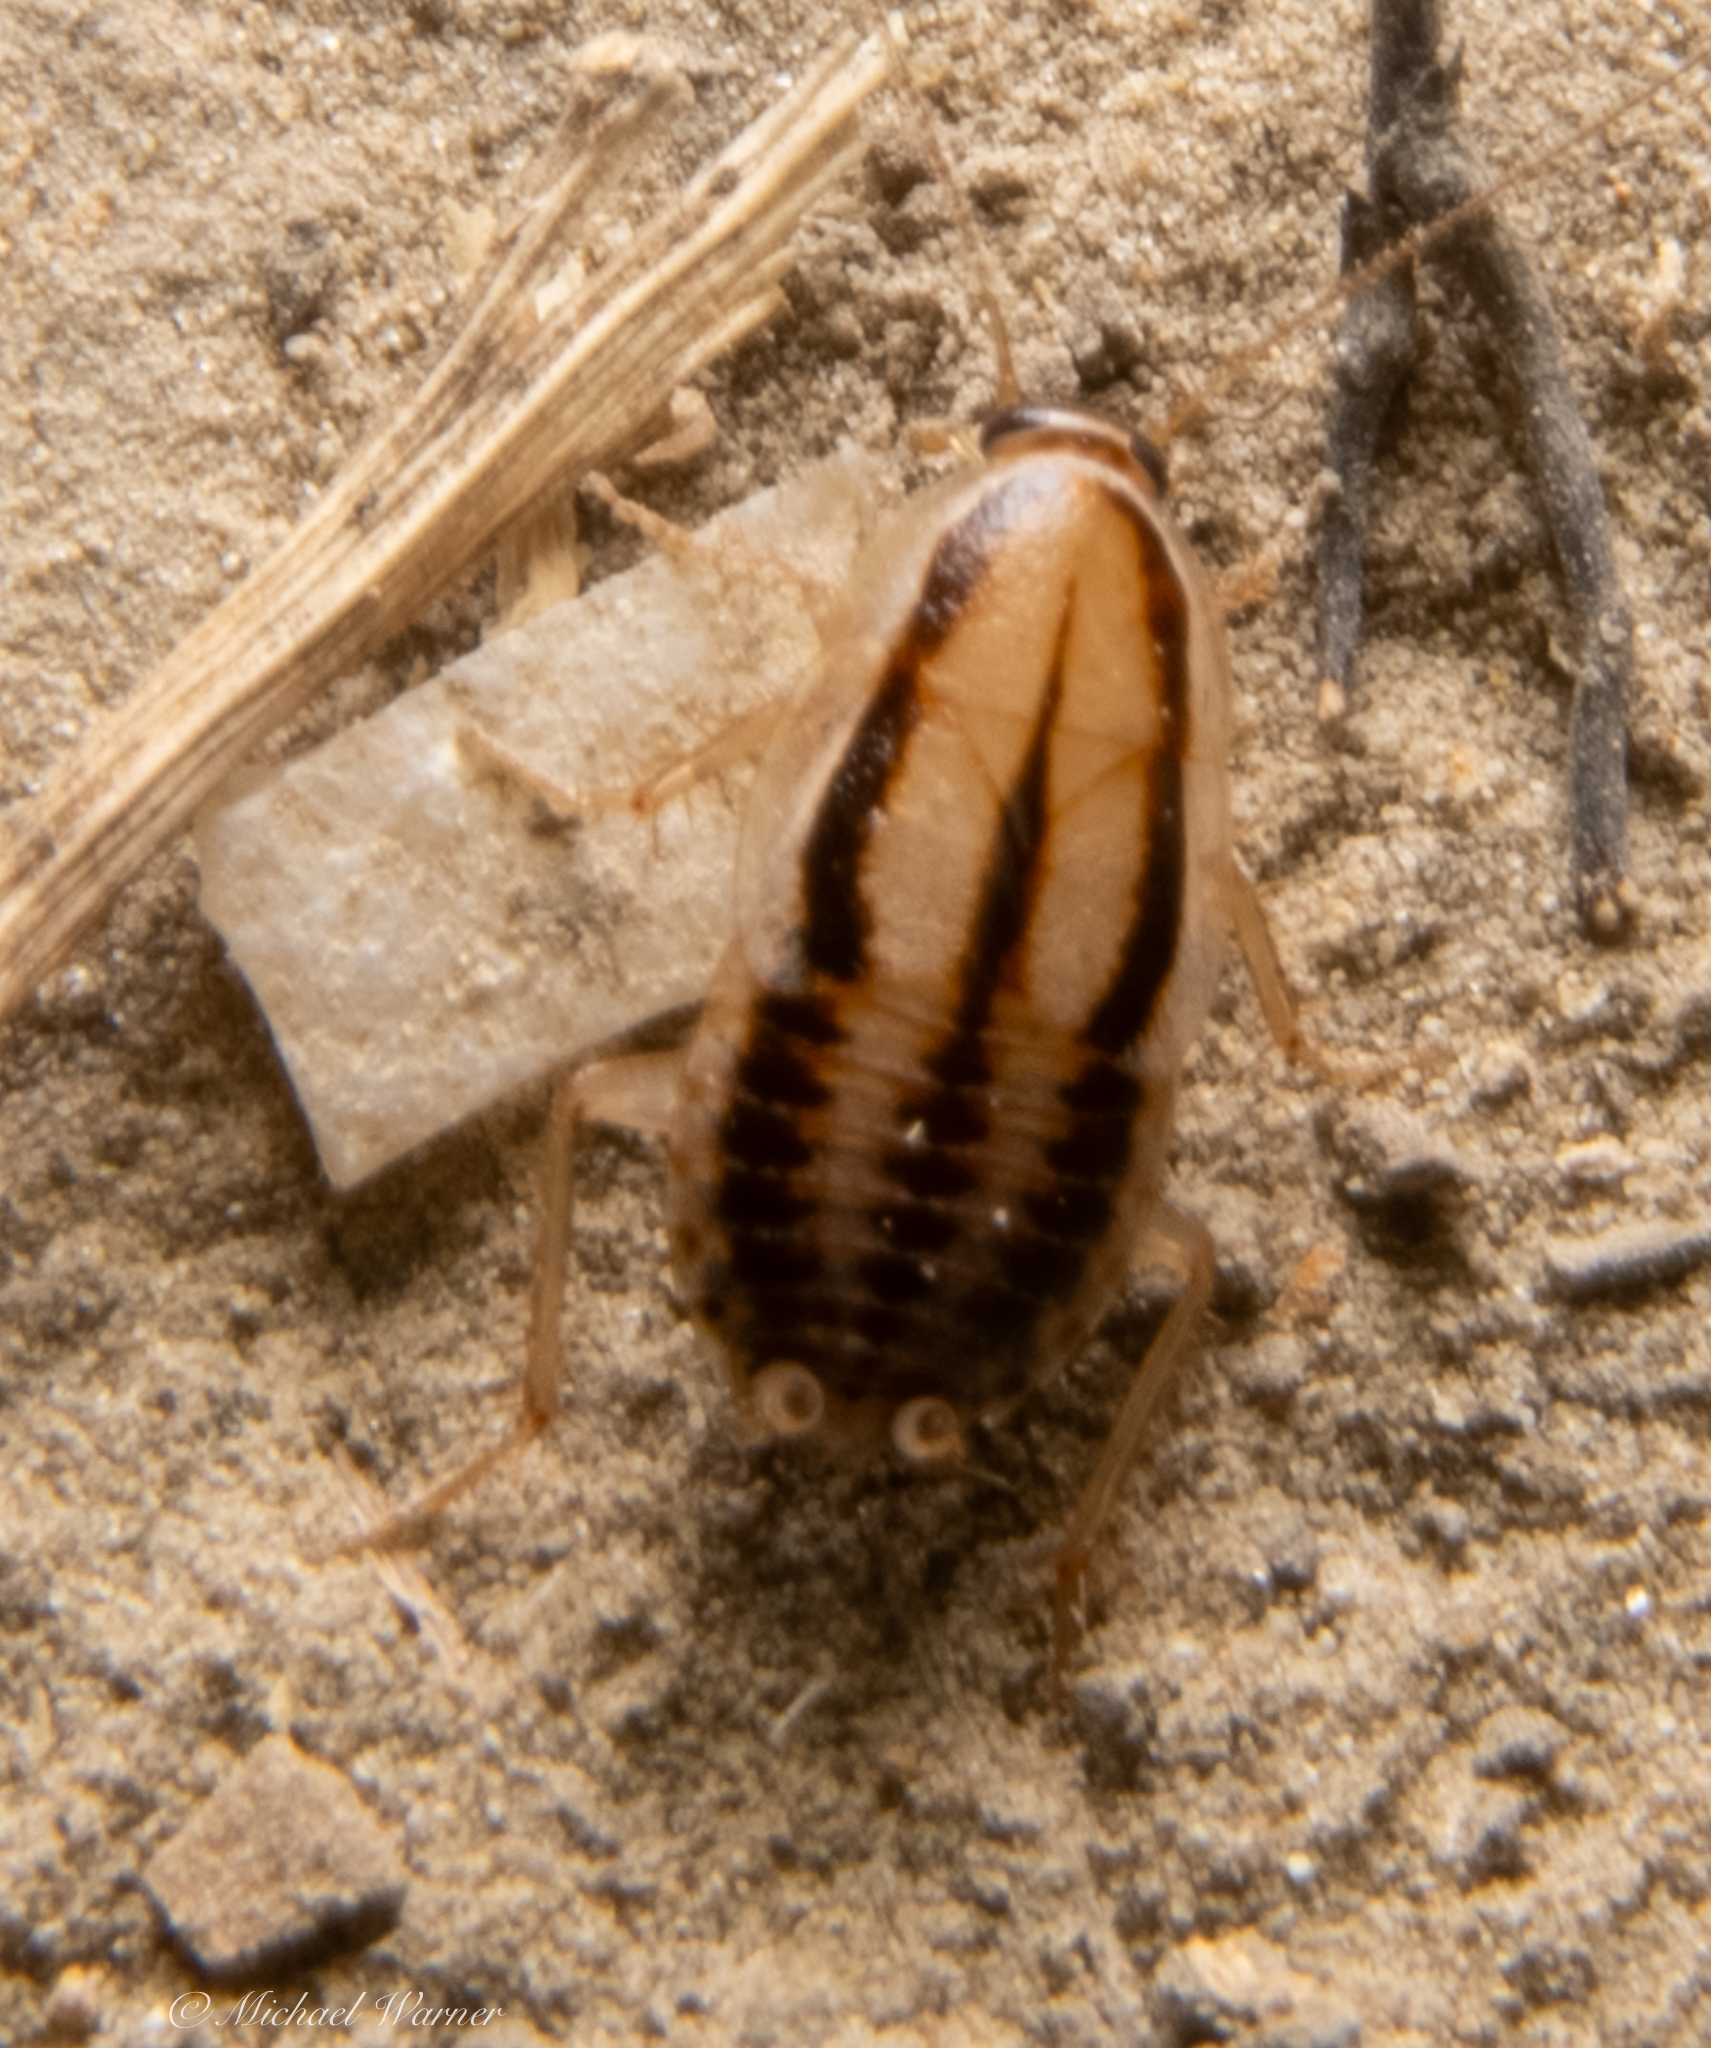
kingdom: Animalia
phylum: Arthropoda
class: Insecta
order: Blattodea
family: Ectobiidae
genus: Luridiblatta
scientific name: Luridiblatta trivittata
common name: Three-lined cockroach
